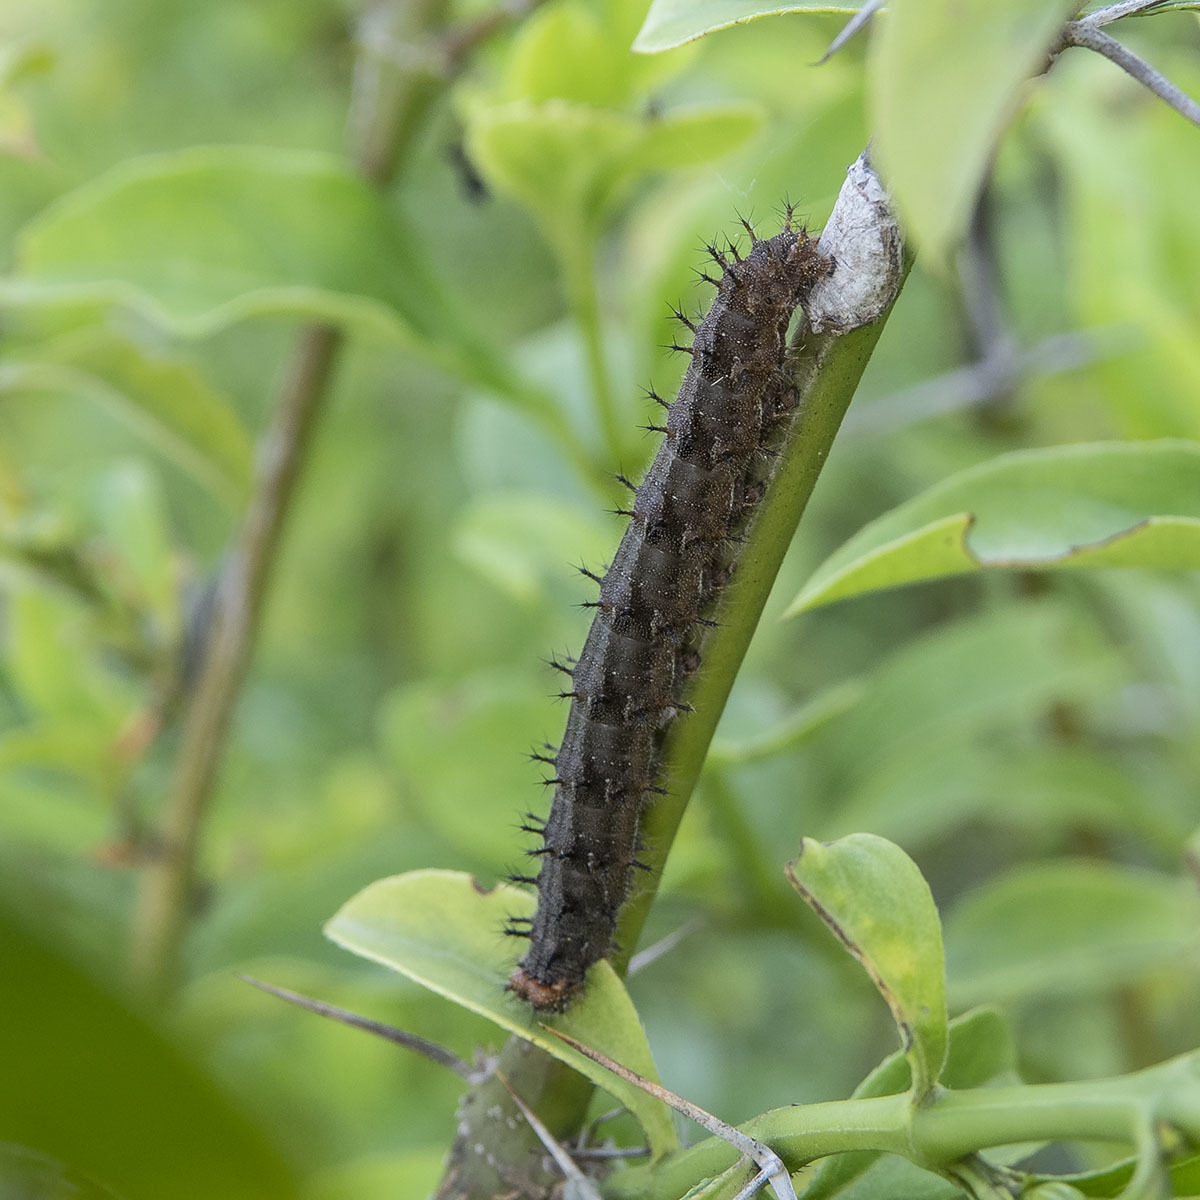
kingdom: Animalia
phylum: Arthropoda
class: Insecta
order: Lepidoptera
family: Nymphalidae
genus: Junonia
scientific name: Junonia lemonias
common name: Lemon pansy
